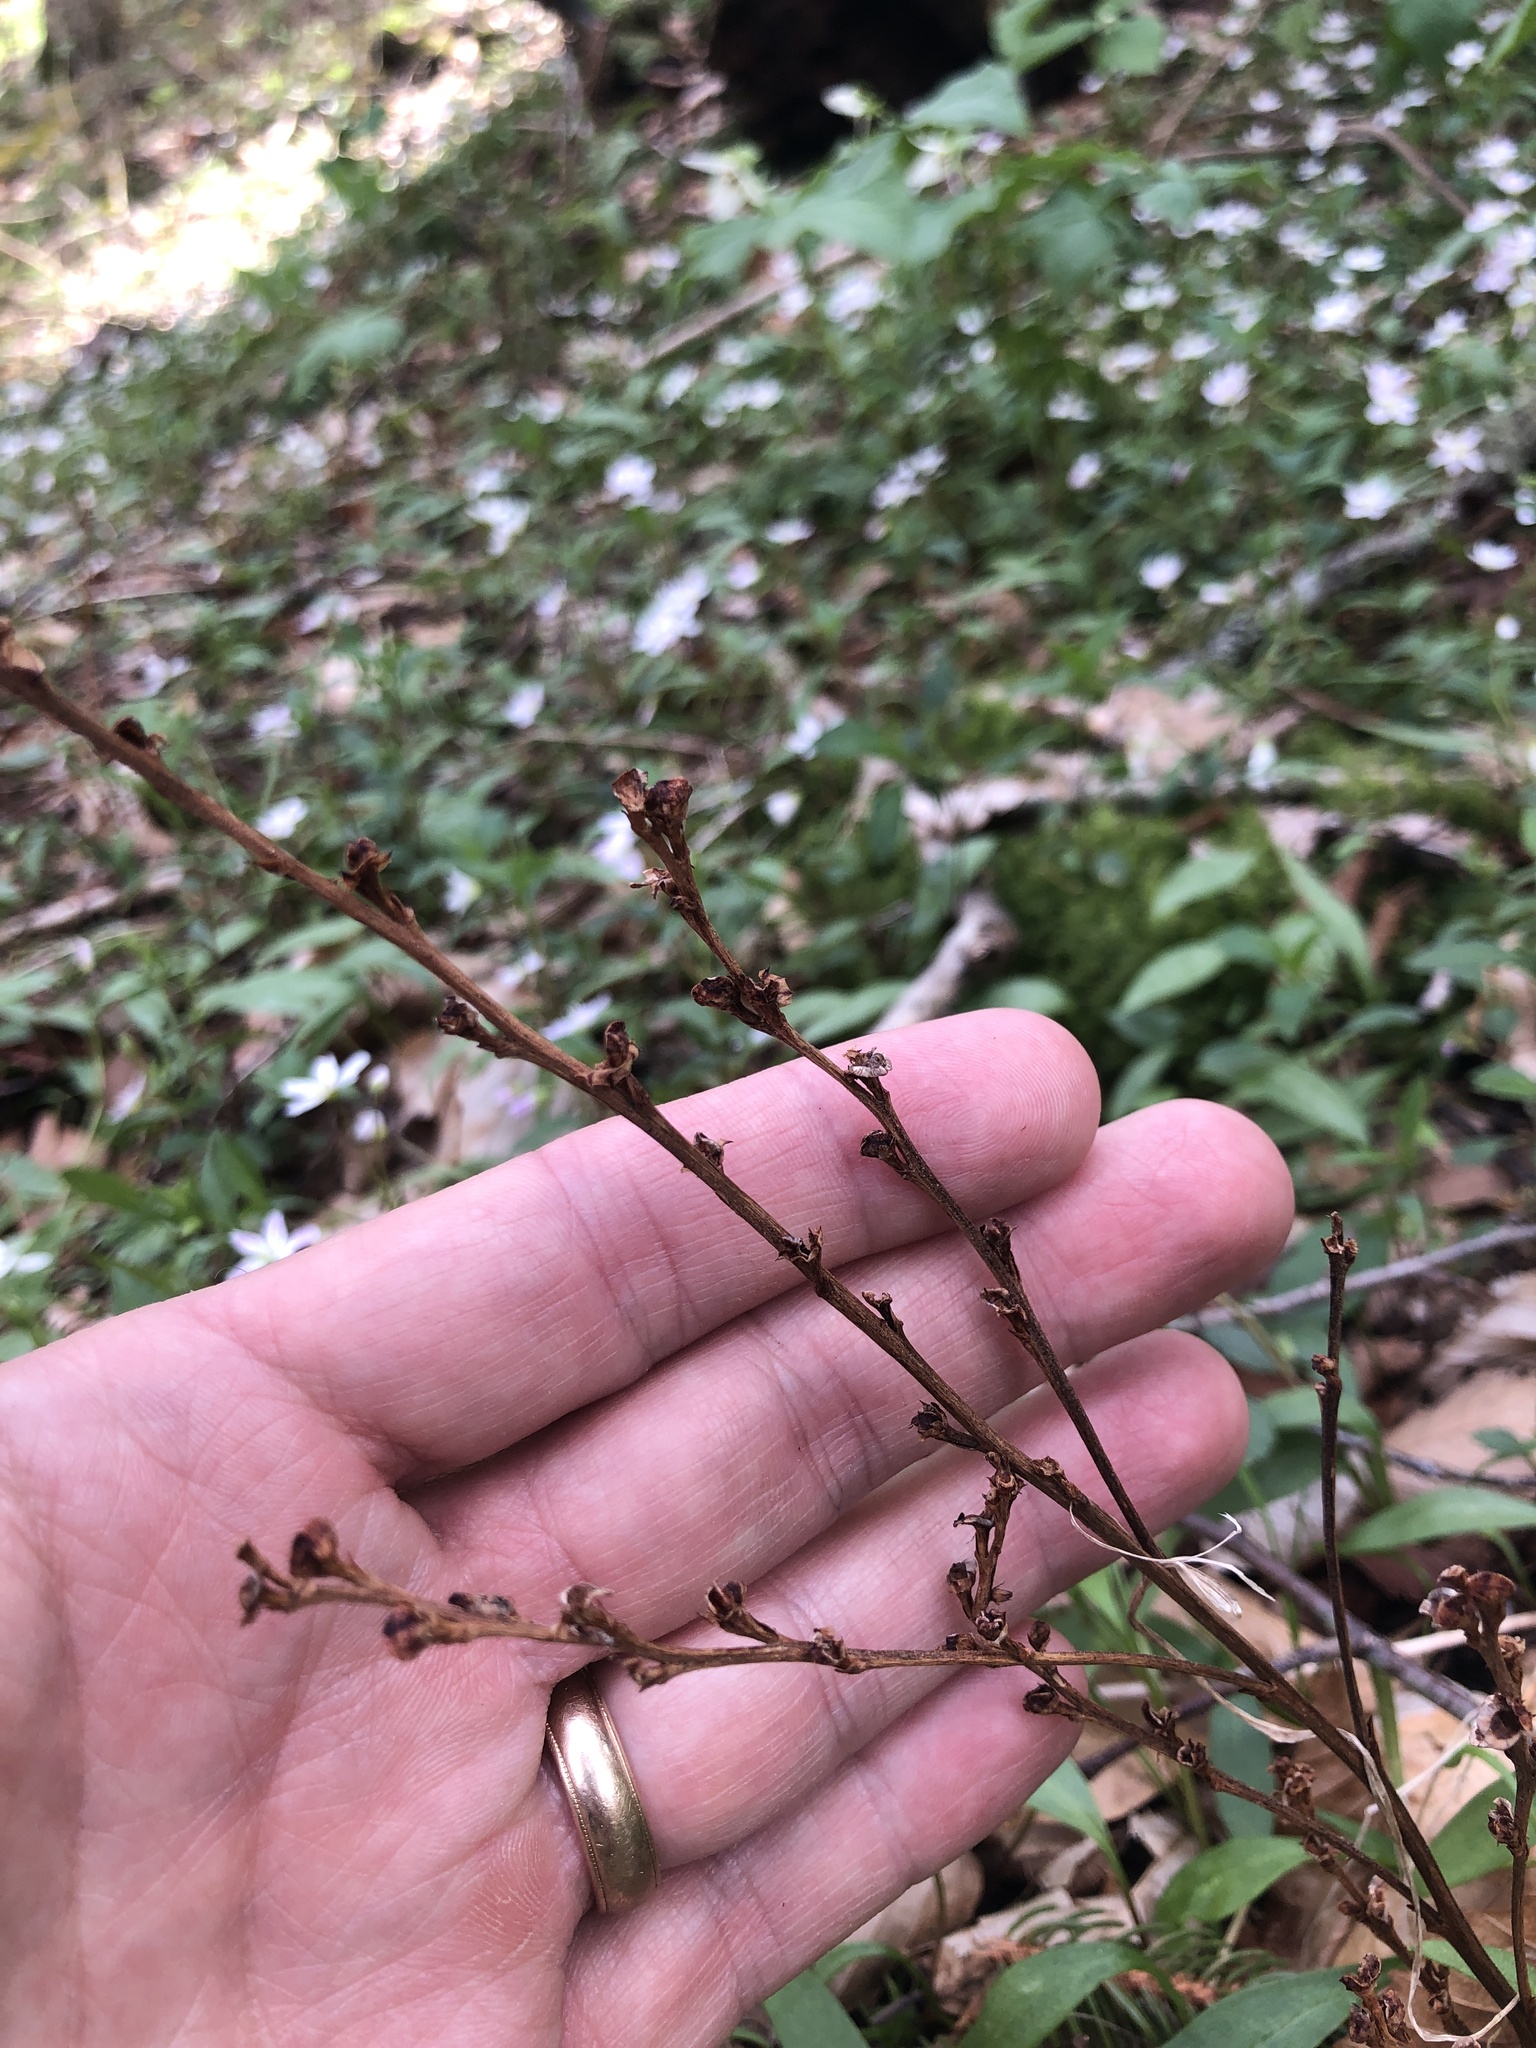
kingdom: Plantae
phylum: Tracheophyta
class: Magnoliopsida
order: Lamiales
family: Orobanchaceae
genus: Epifagus
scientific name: Epifagus virginiana
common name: Beechdrops
